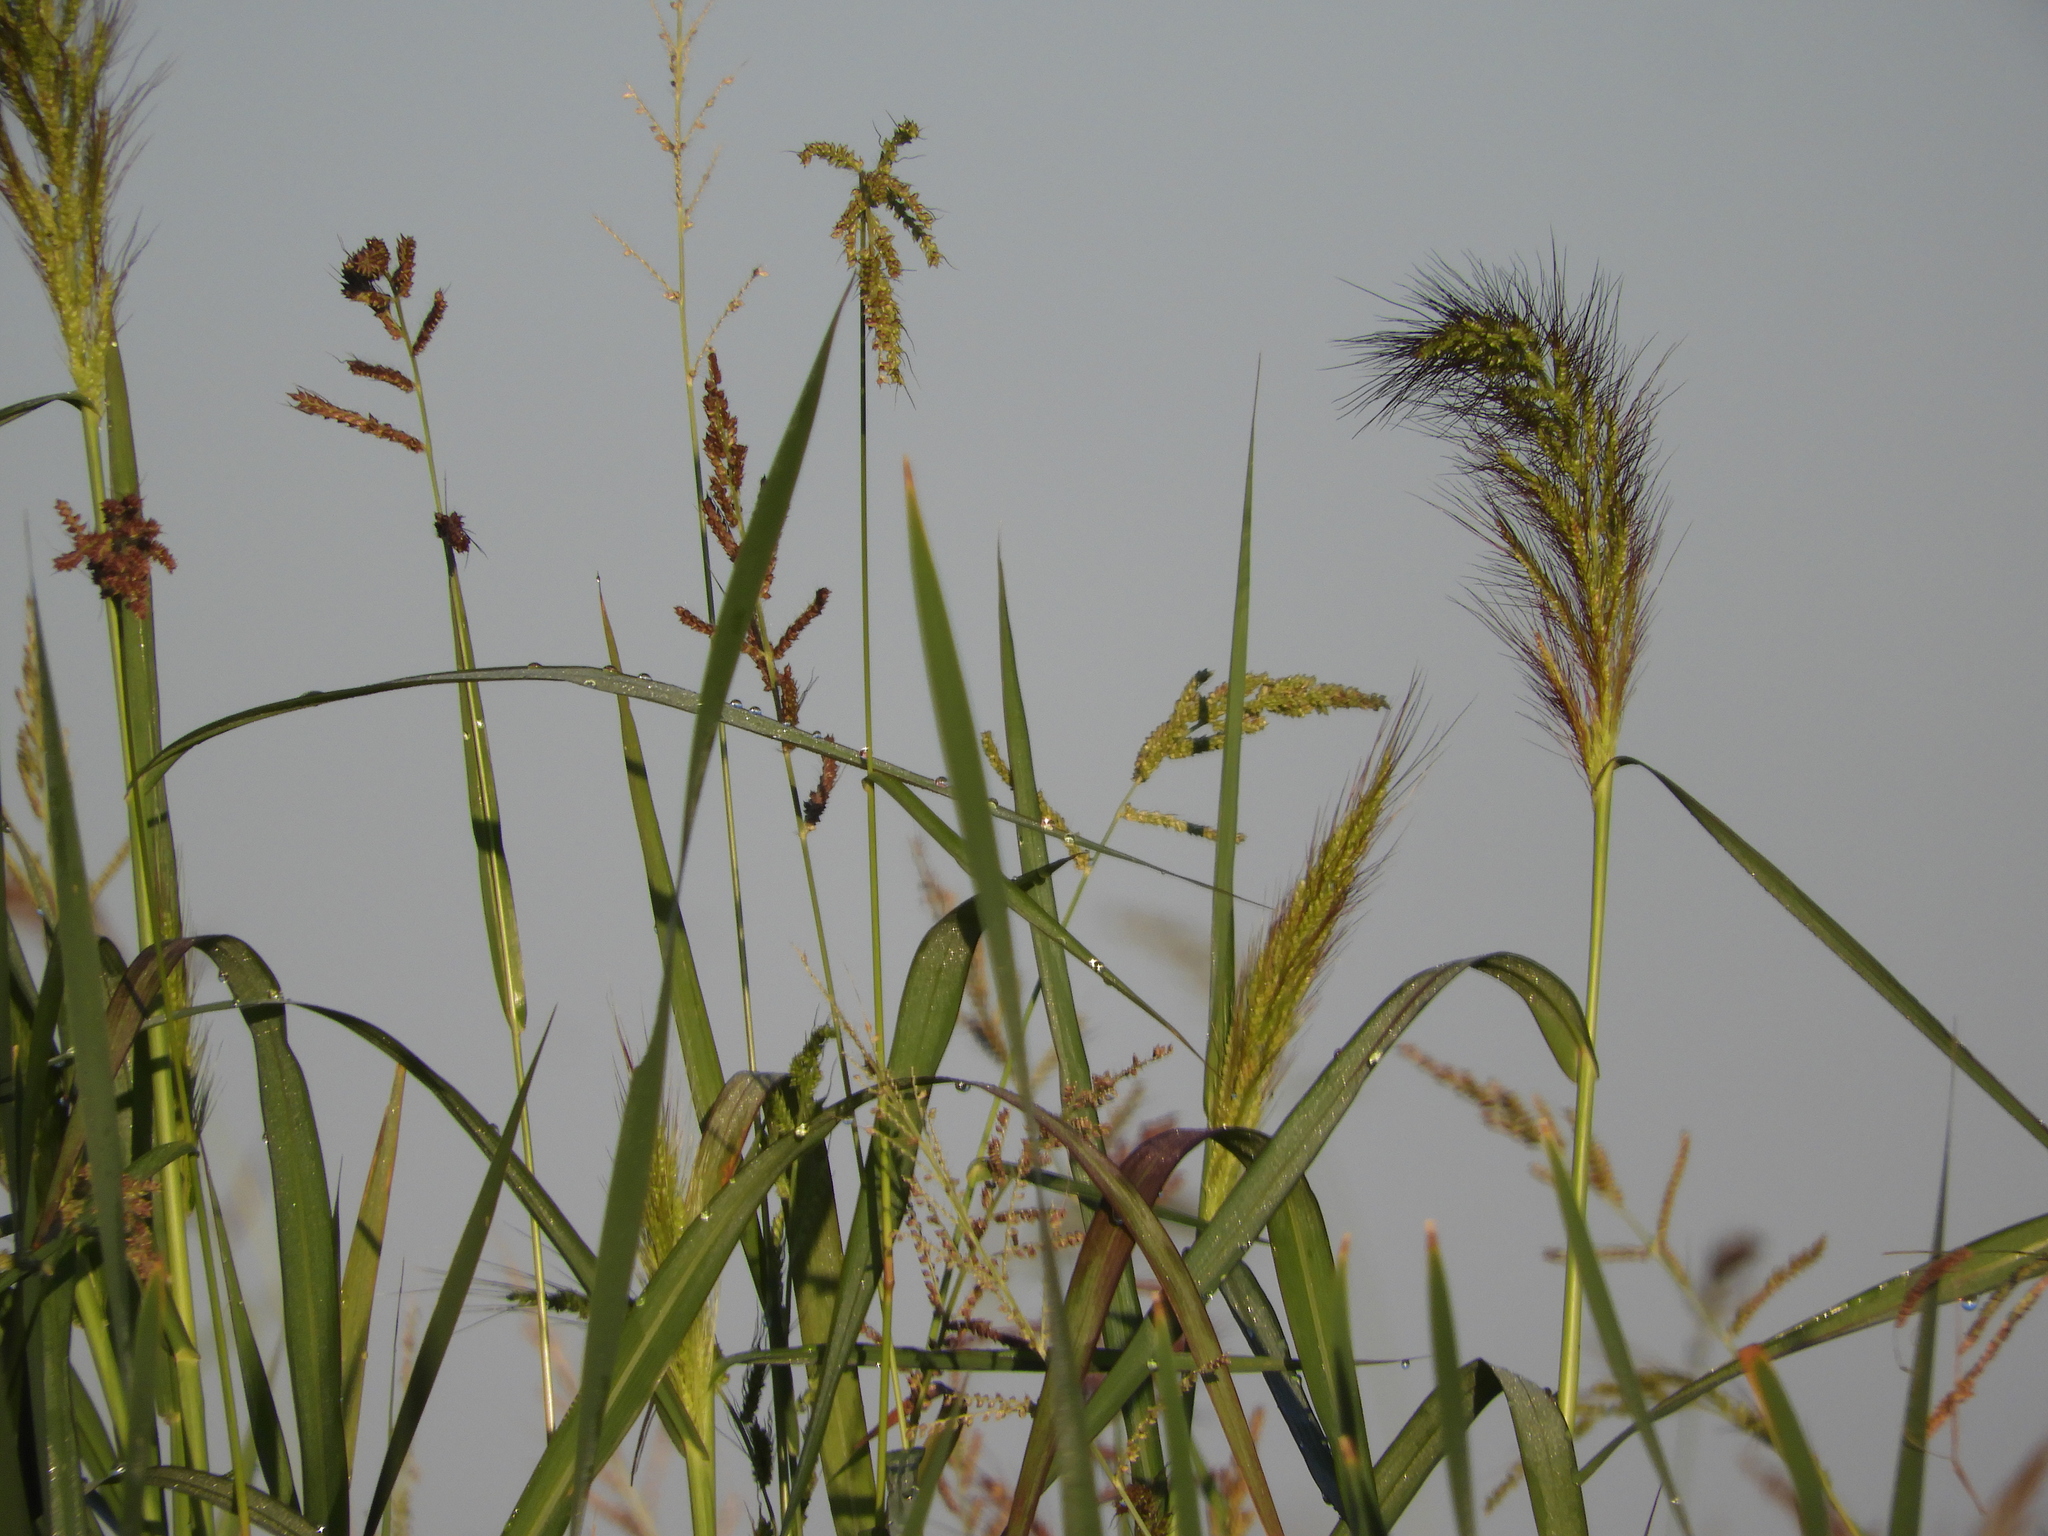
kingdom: Plantae
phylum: Tracheophyta
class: Liliopsida
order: Poales
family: Poaceae
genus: Echinochloa
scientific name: Echinochloa crus-galli
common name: Cockspur
